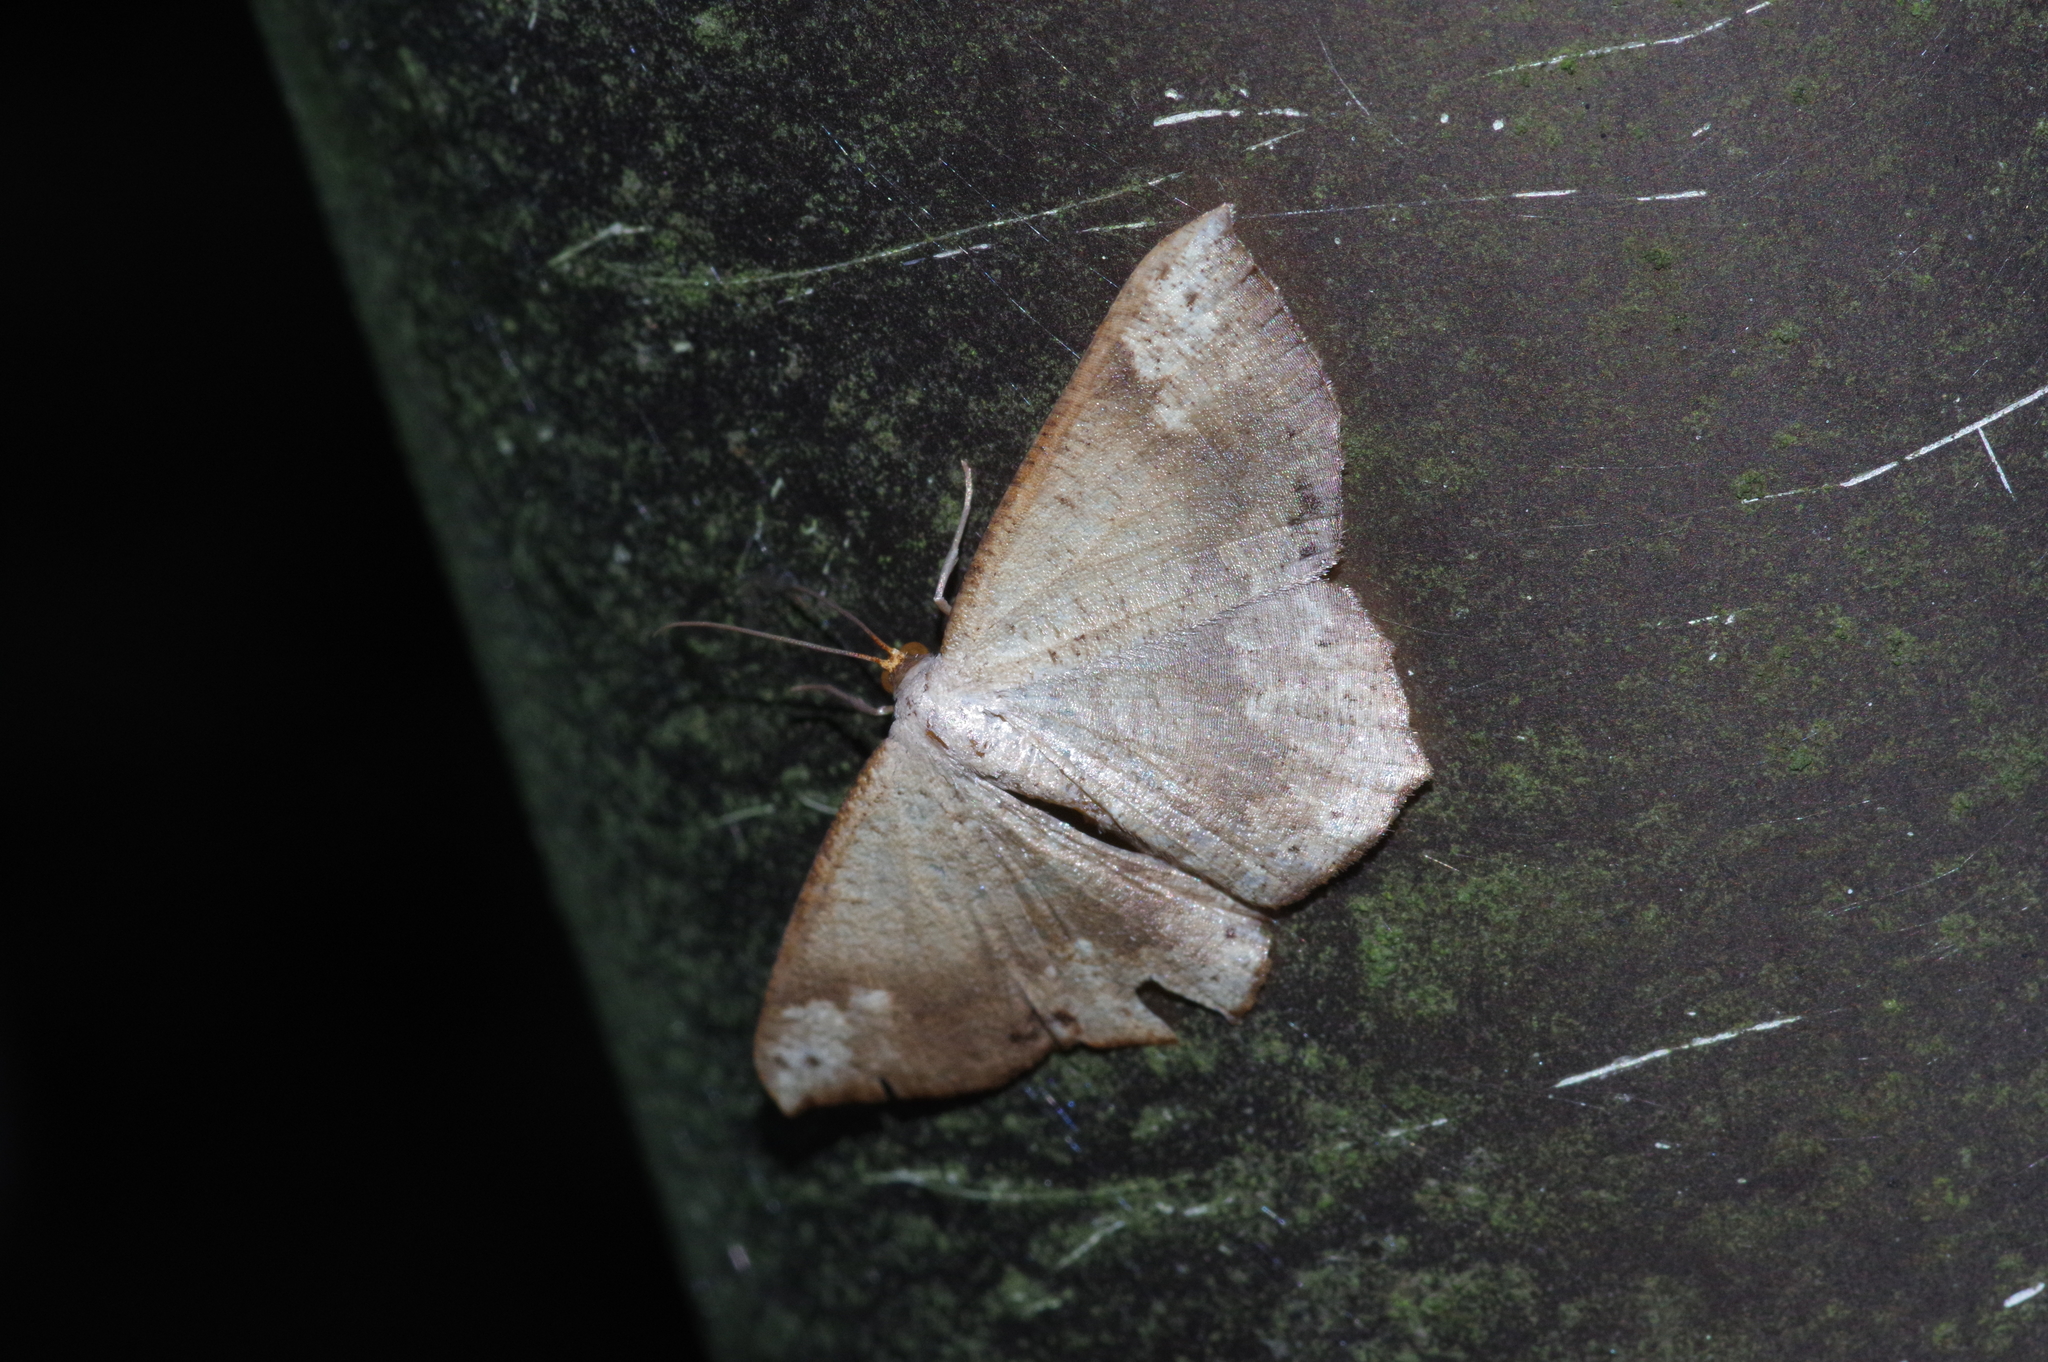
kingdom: Animalia
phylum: Arthropoda
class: Insecta
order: Lepidoptera
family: Geometridae
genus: Peratostega
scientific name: Peratostega deletaria
